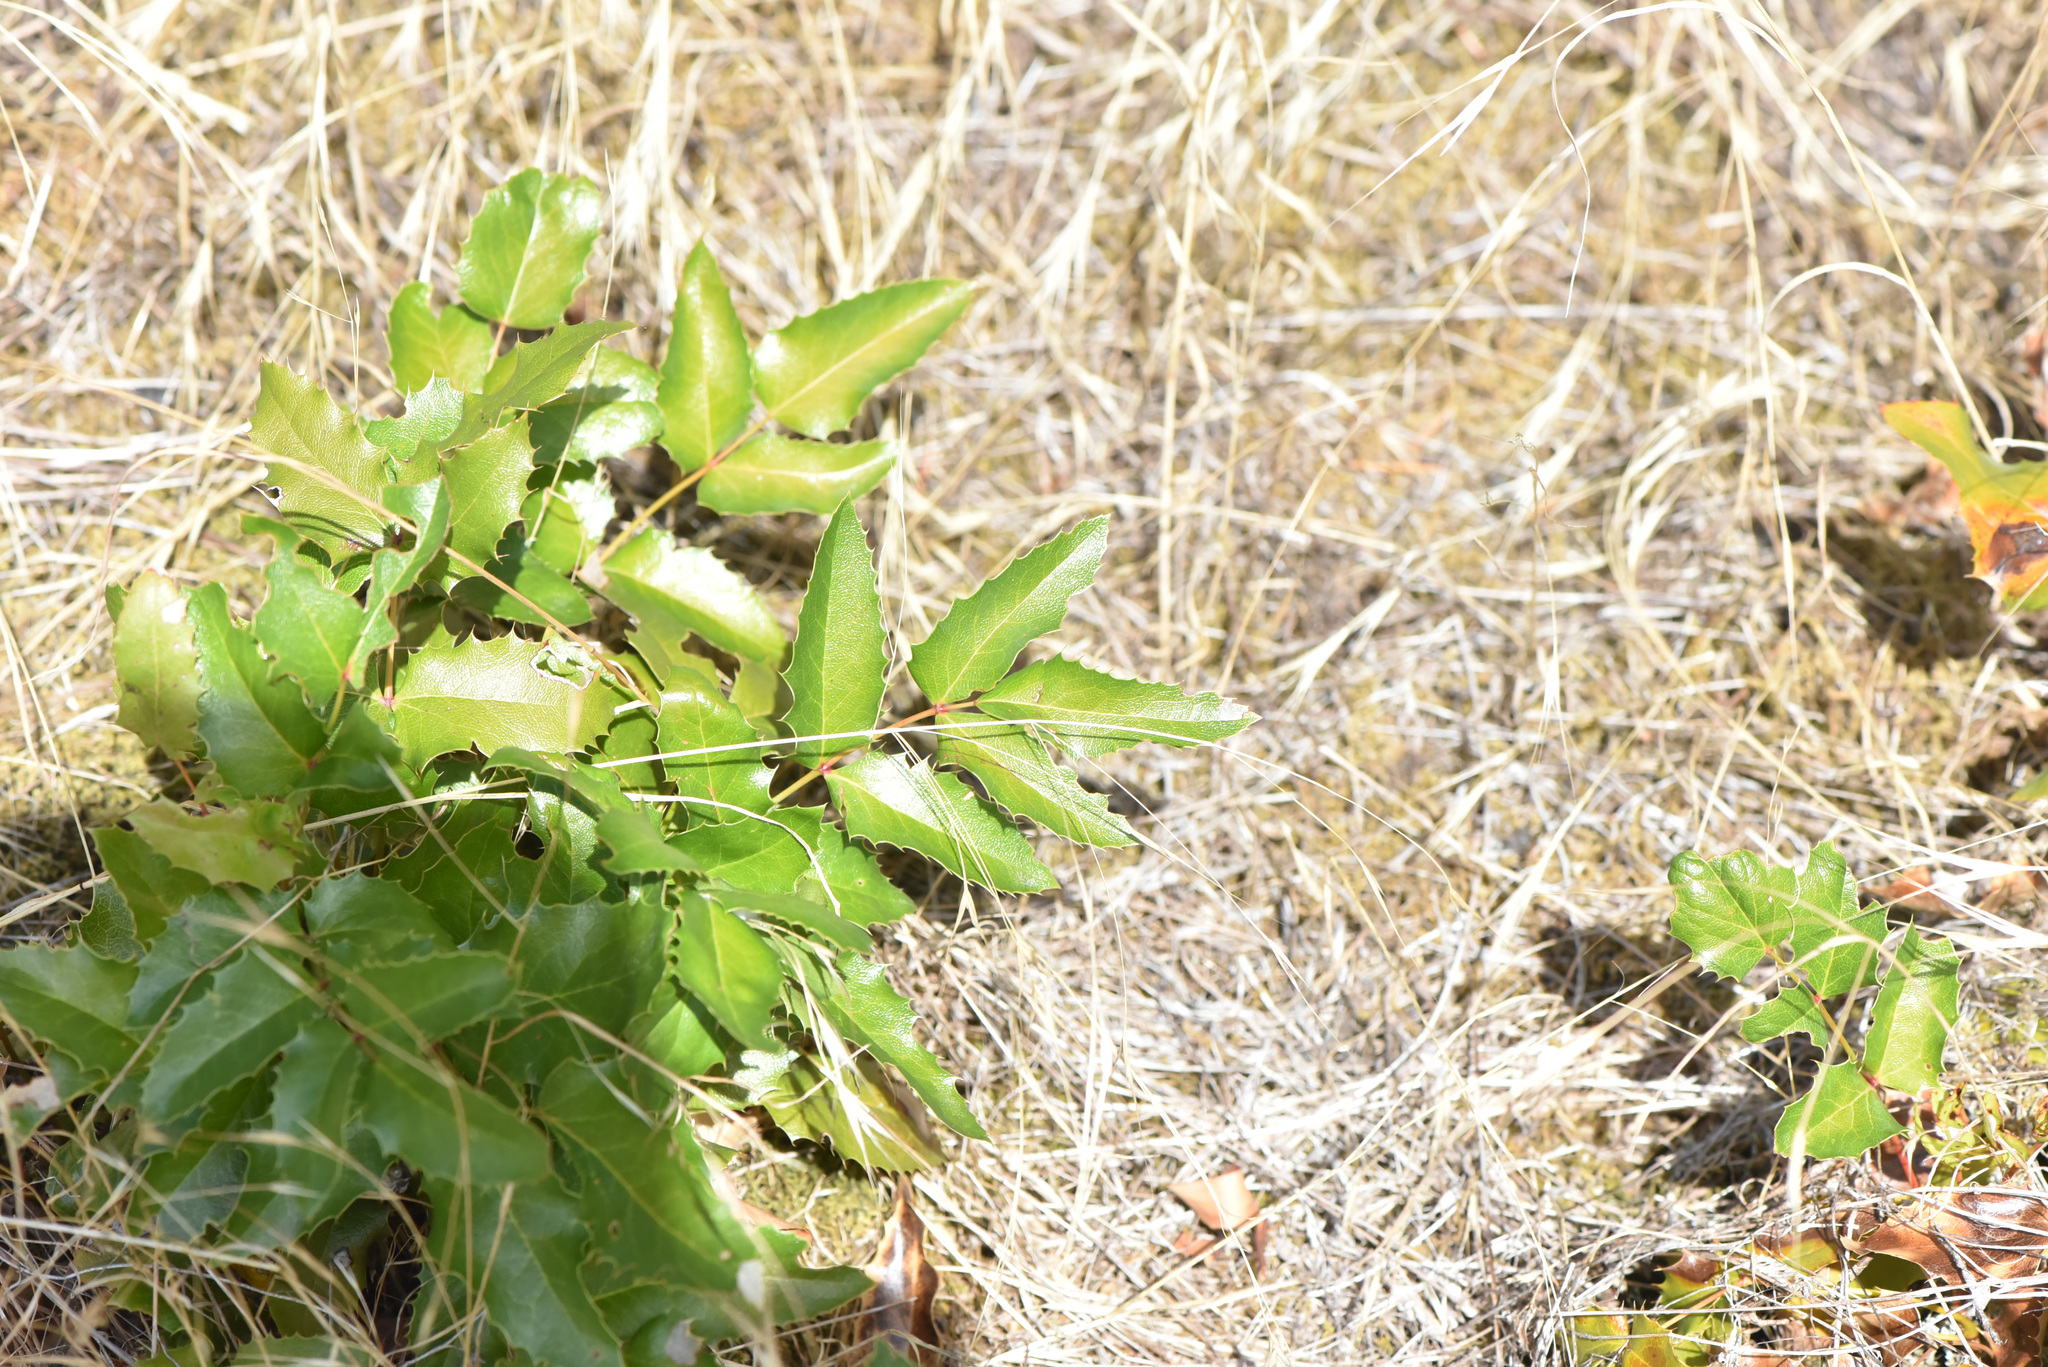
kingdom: Plantae
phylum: Tracheophyta
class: Magnoliopsida
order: Ranunculales
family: Berberidaceae
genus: Mahonia
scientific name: Mahonia aquifolium
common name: Oregon-grape
